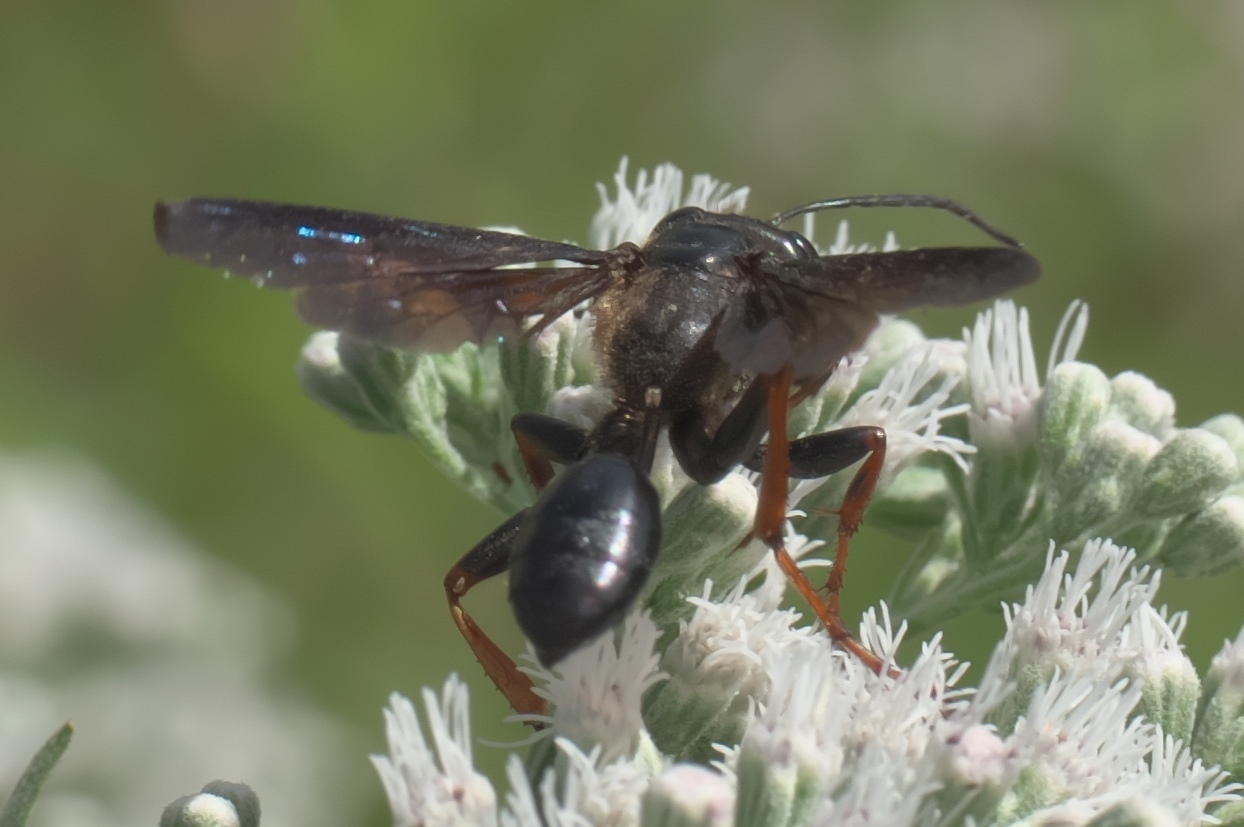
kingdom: Animalia
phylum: Arthropoda
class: Insecta
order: Hymenoptera
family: Sphecidae
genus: Isodontia
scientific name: Isodontia auripes
